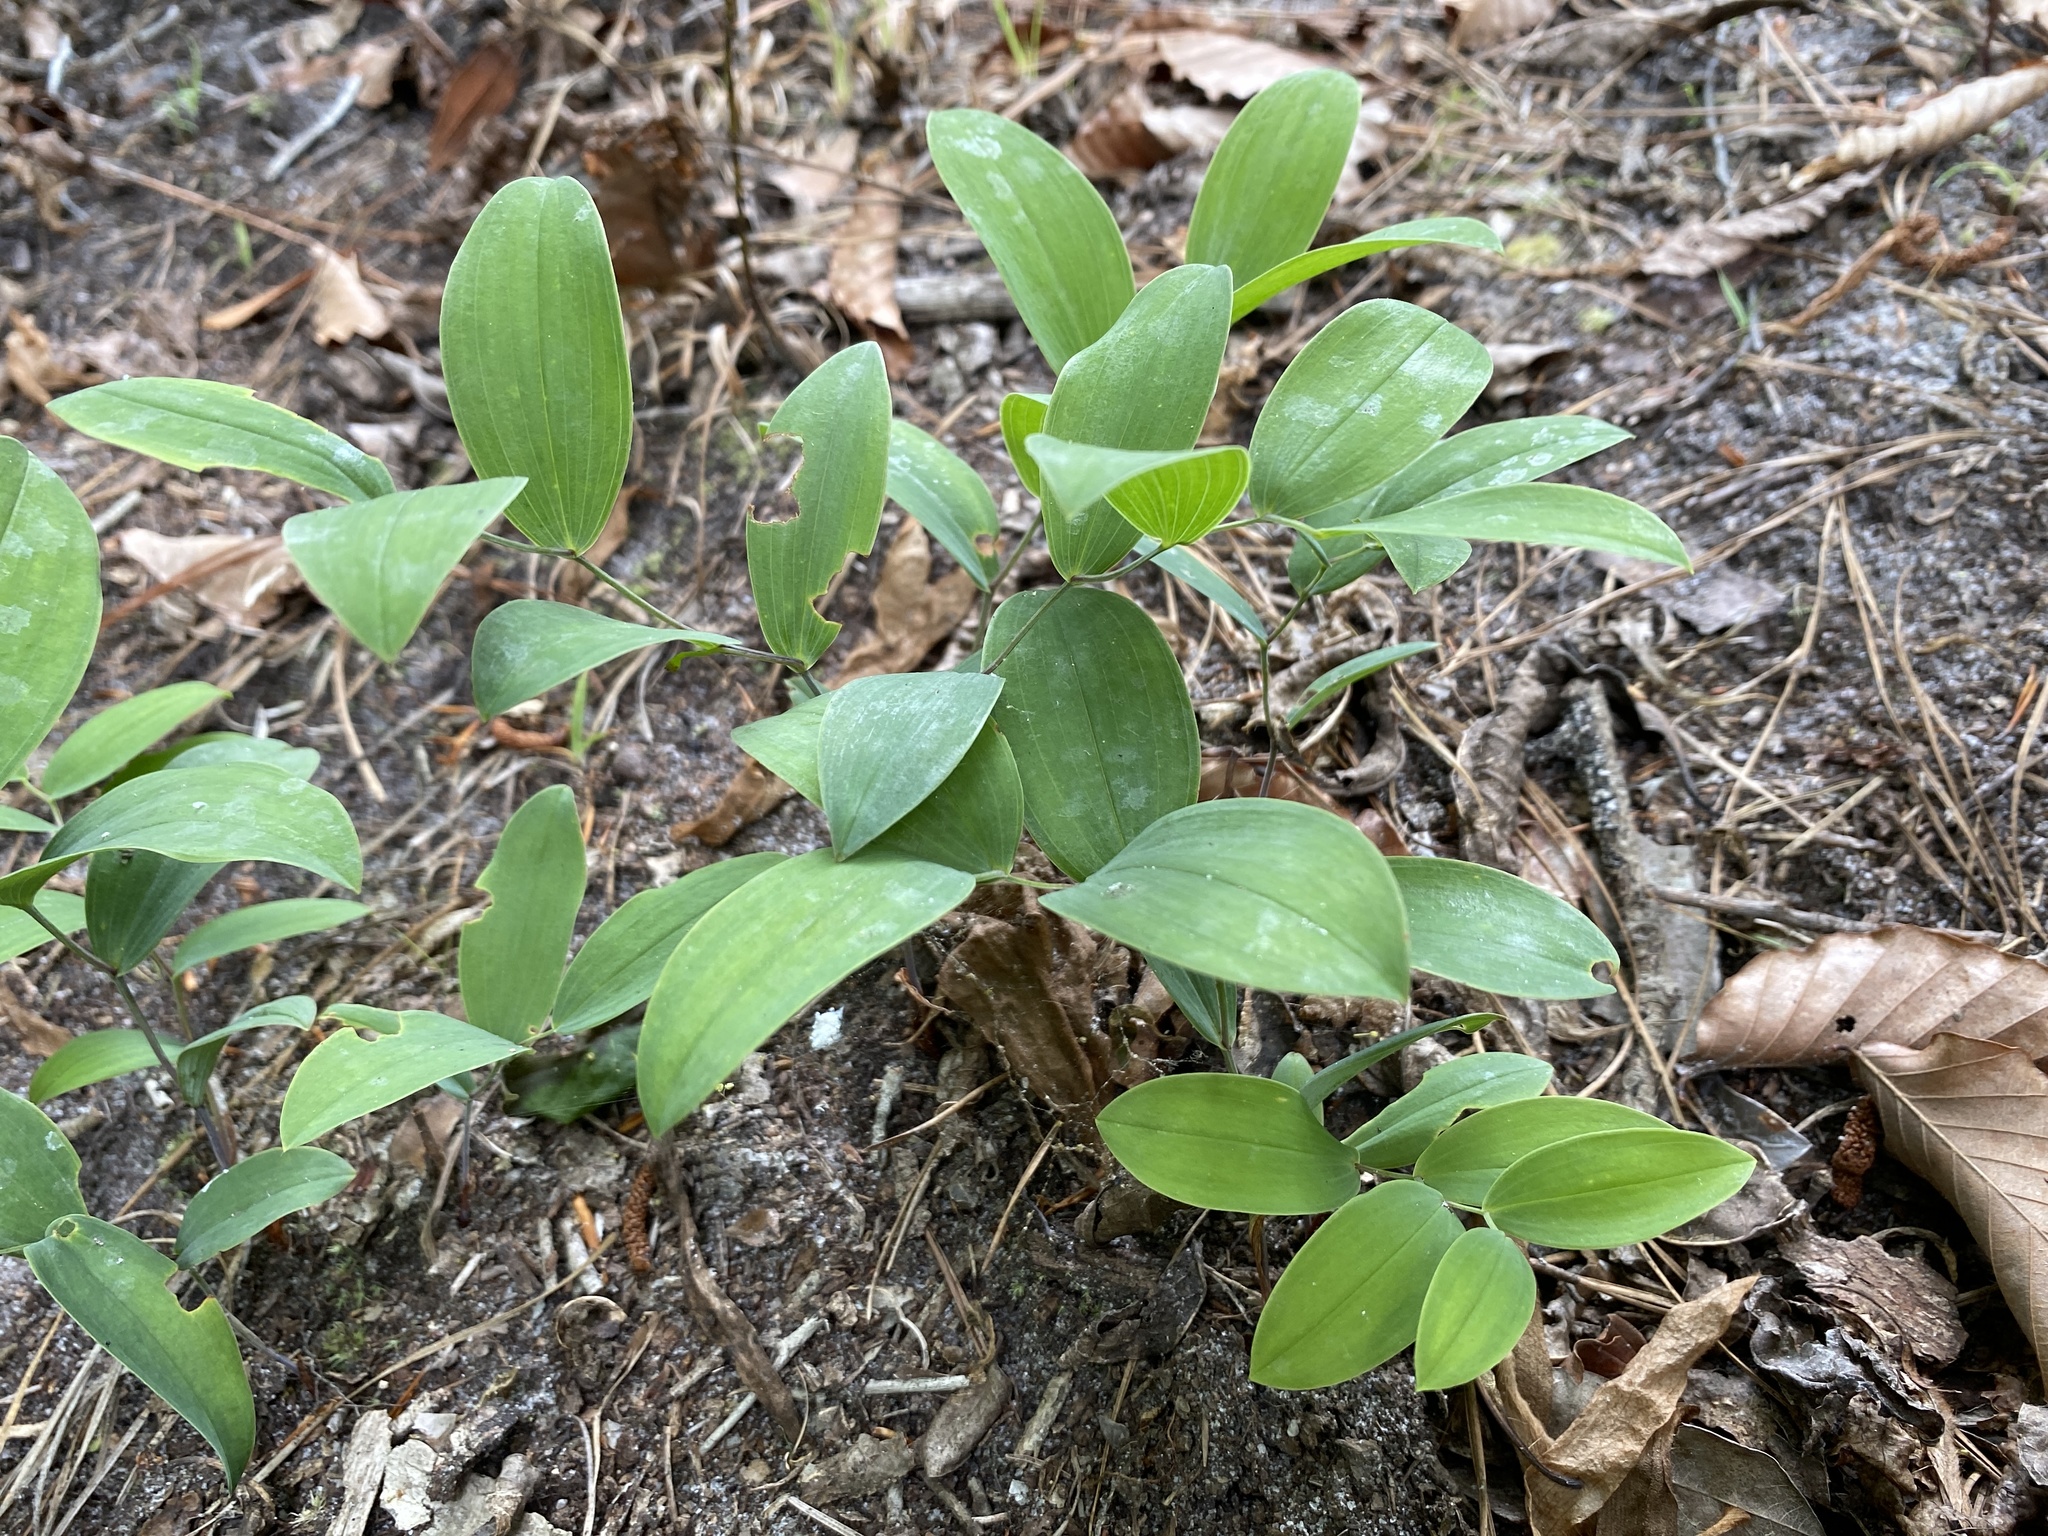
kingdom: Plantae
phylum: Tracheophyta
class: Liliopsida
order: Liliales
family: Colchicaceae
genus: Uvularia
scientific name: Uvularia floridana
